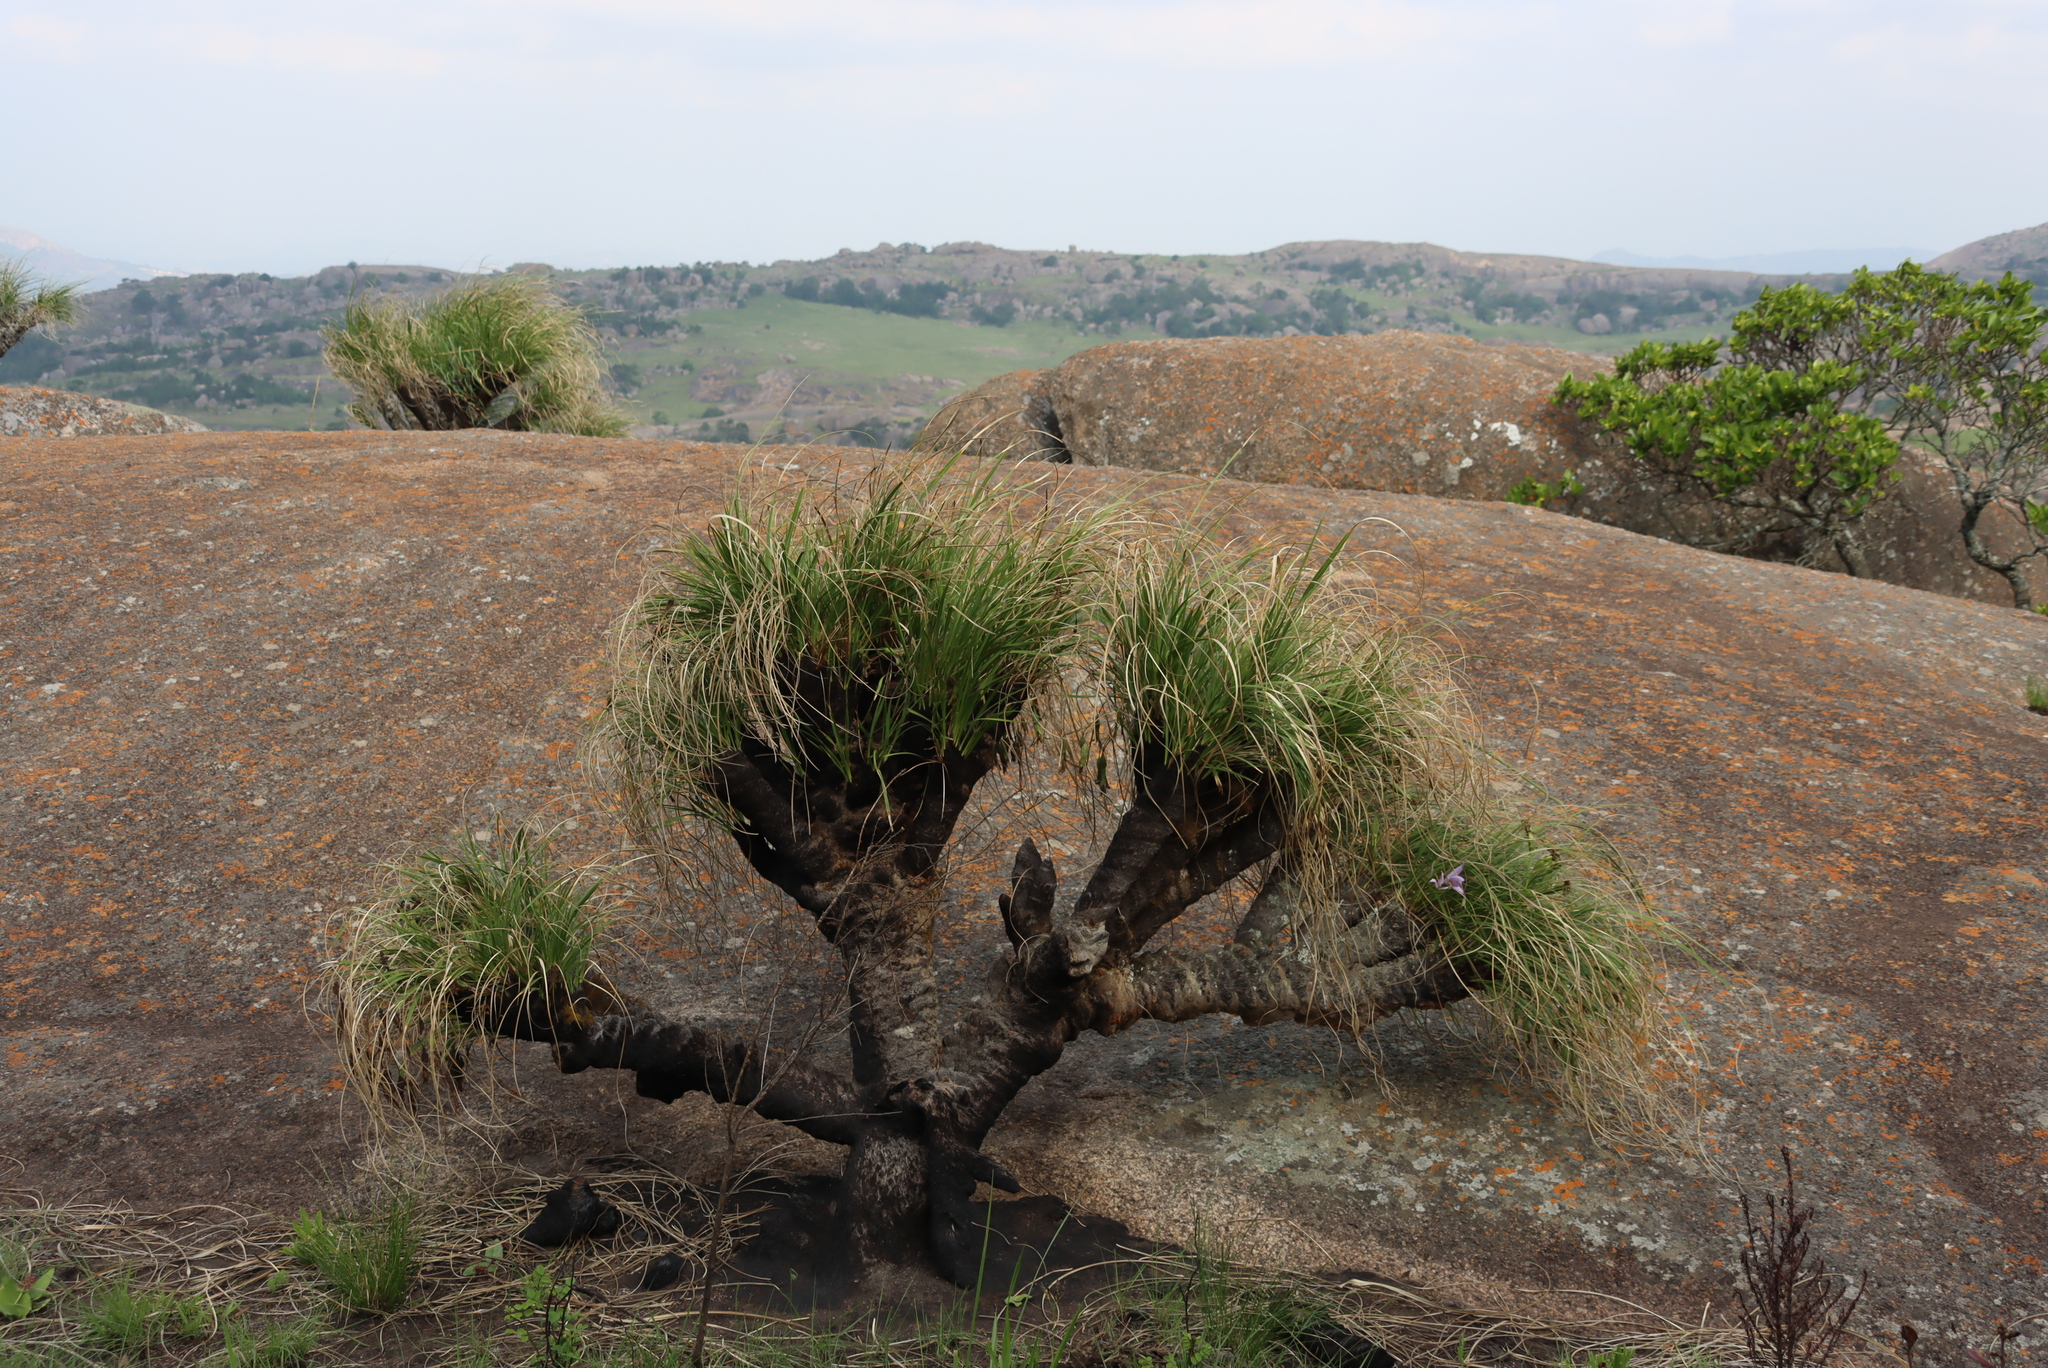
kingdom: Plantae
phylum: Tracheophyta
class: Liliopsida
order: Pandanales
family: Velloziaceae
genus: Xerophyta
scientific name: Xerophyta retinervis
